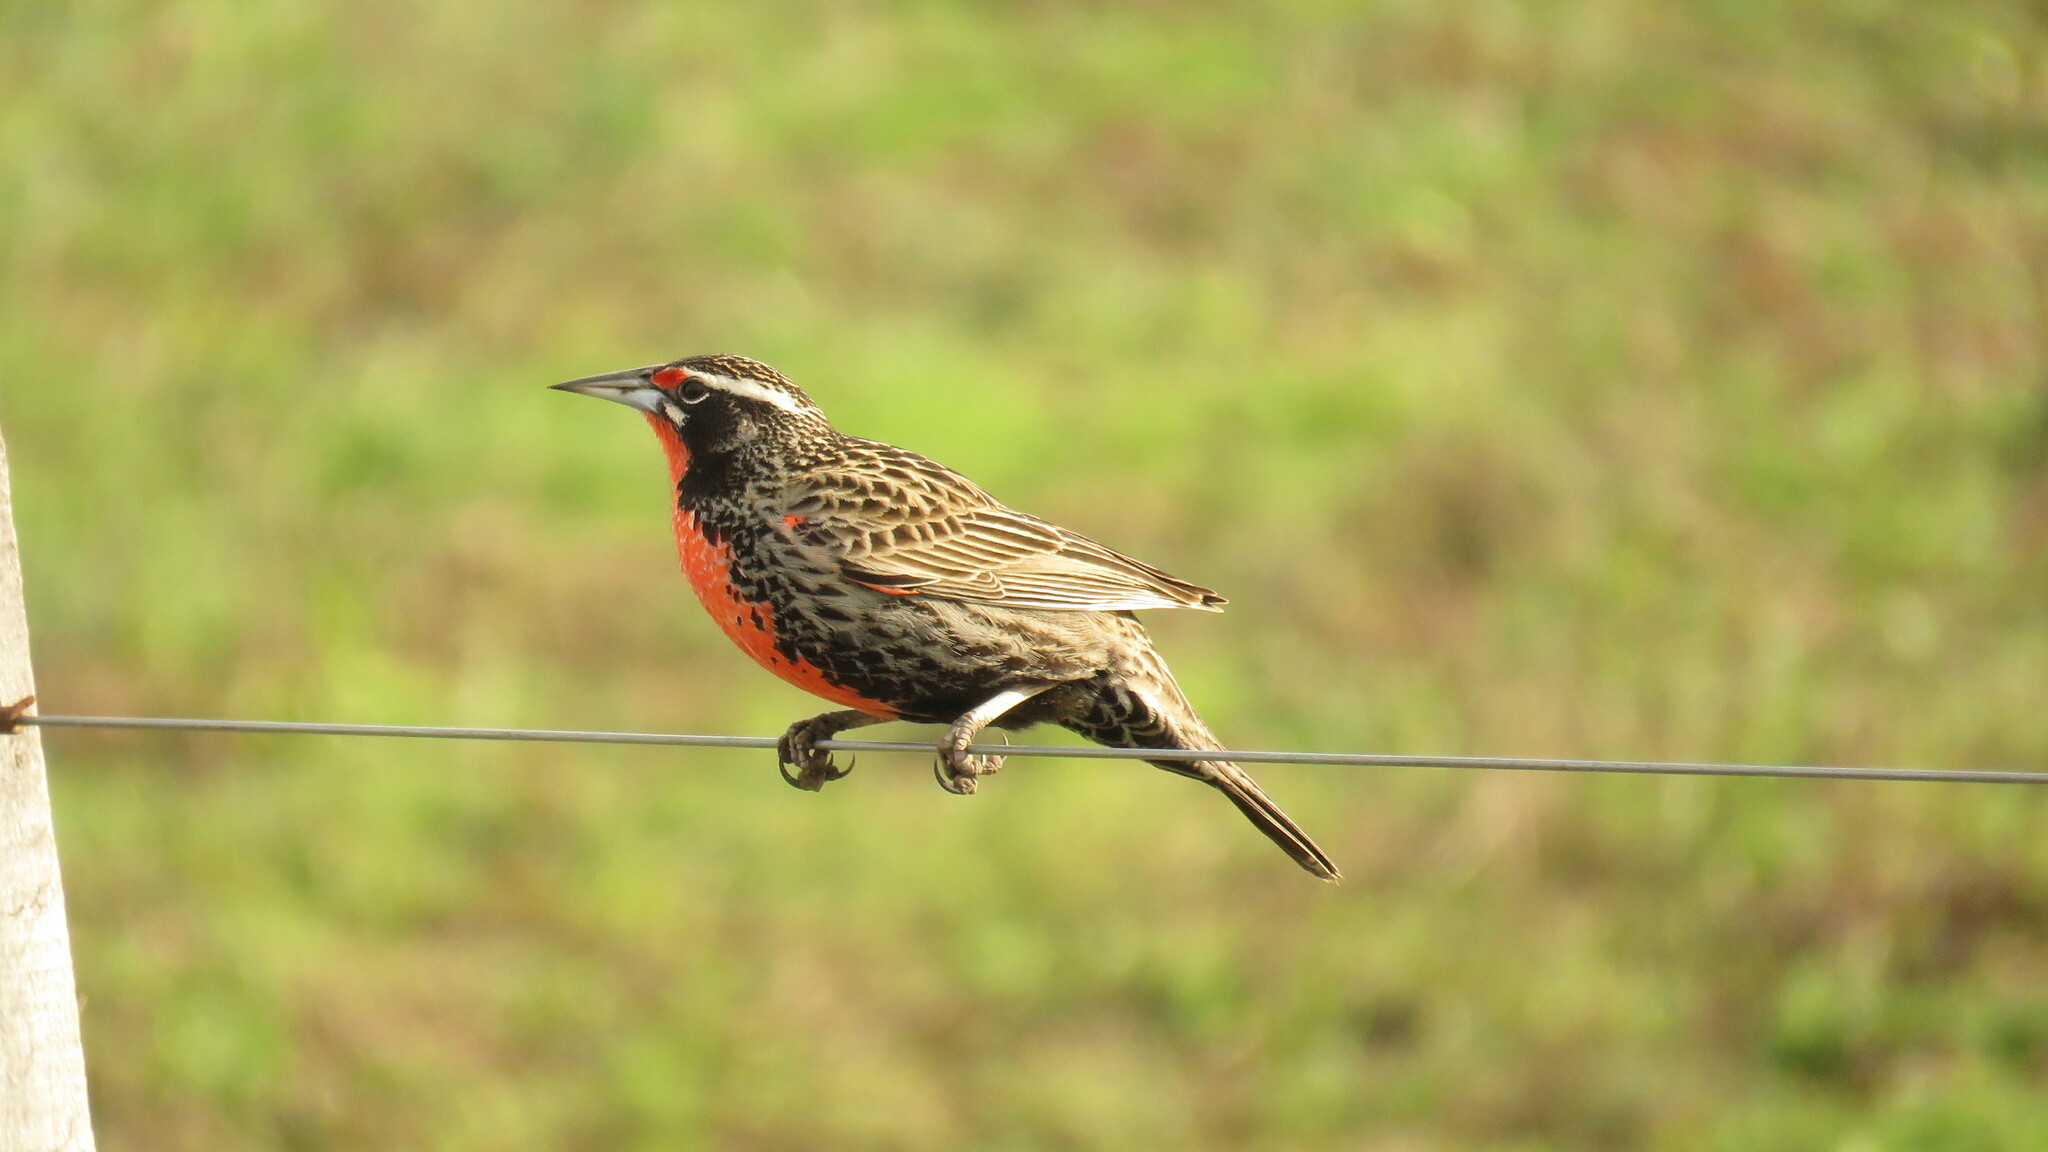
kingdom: Animalia
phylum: Chordata
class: Aves
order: Passeriformes
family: Icteridae
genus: Sturnella
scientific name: Sturnella loyca
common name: Long-tailed meadowlark
